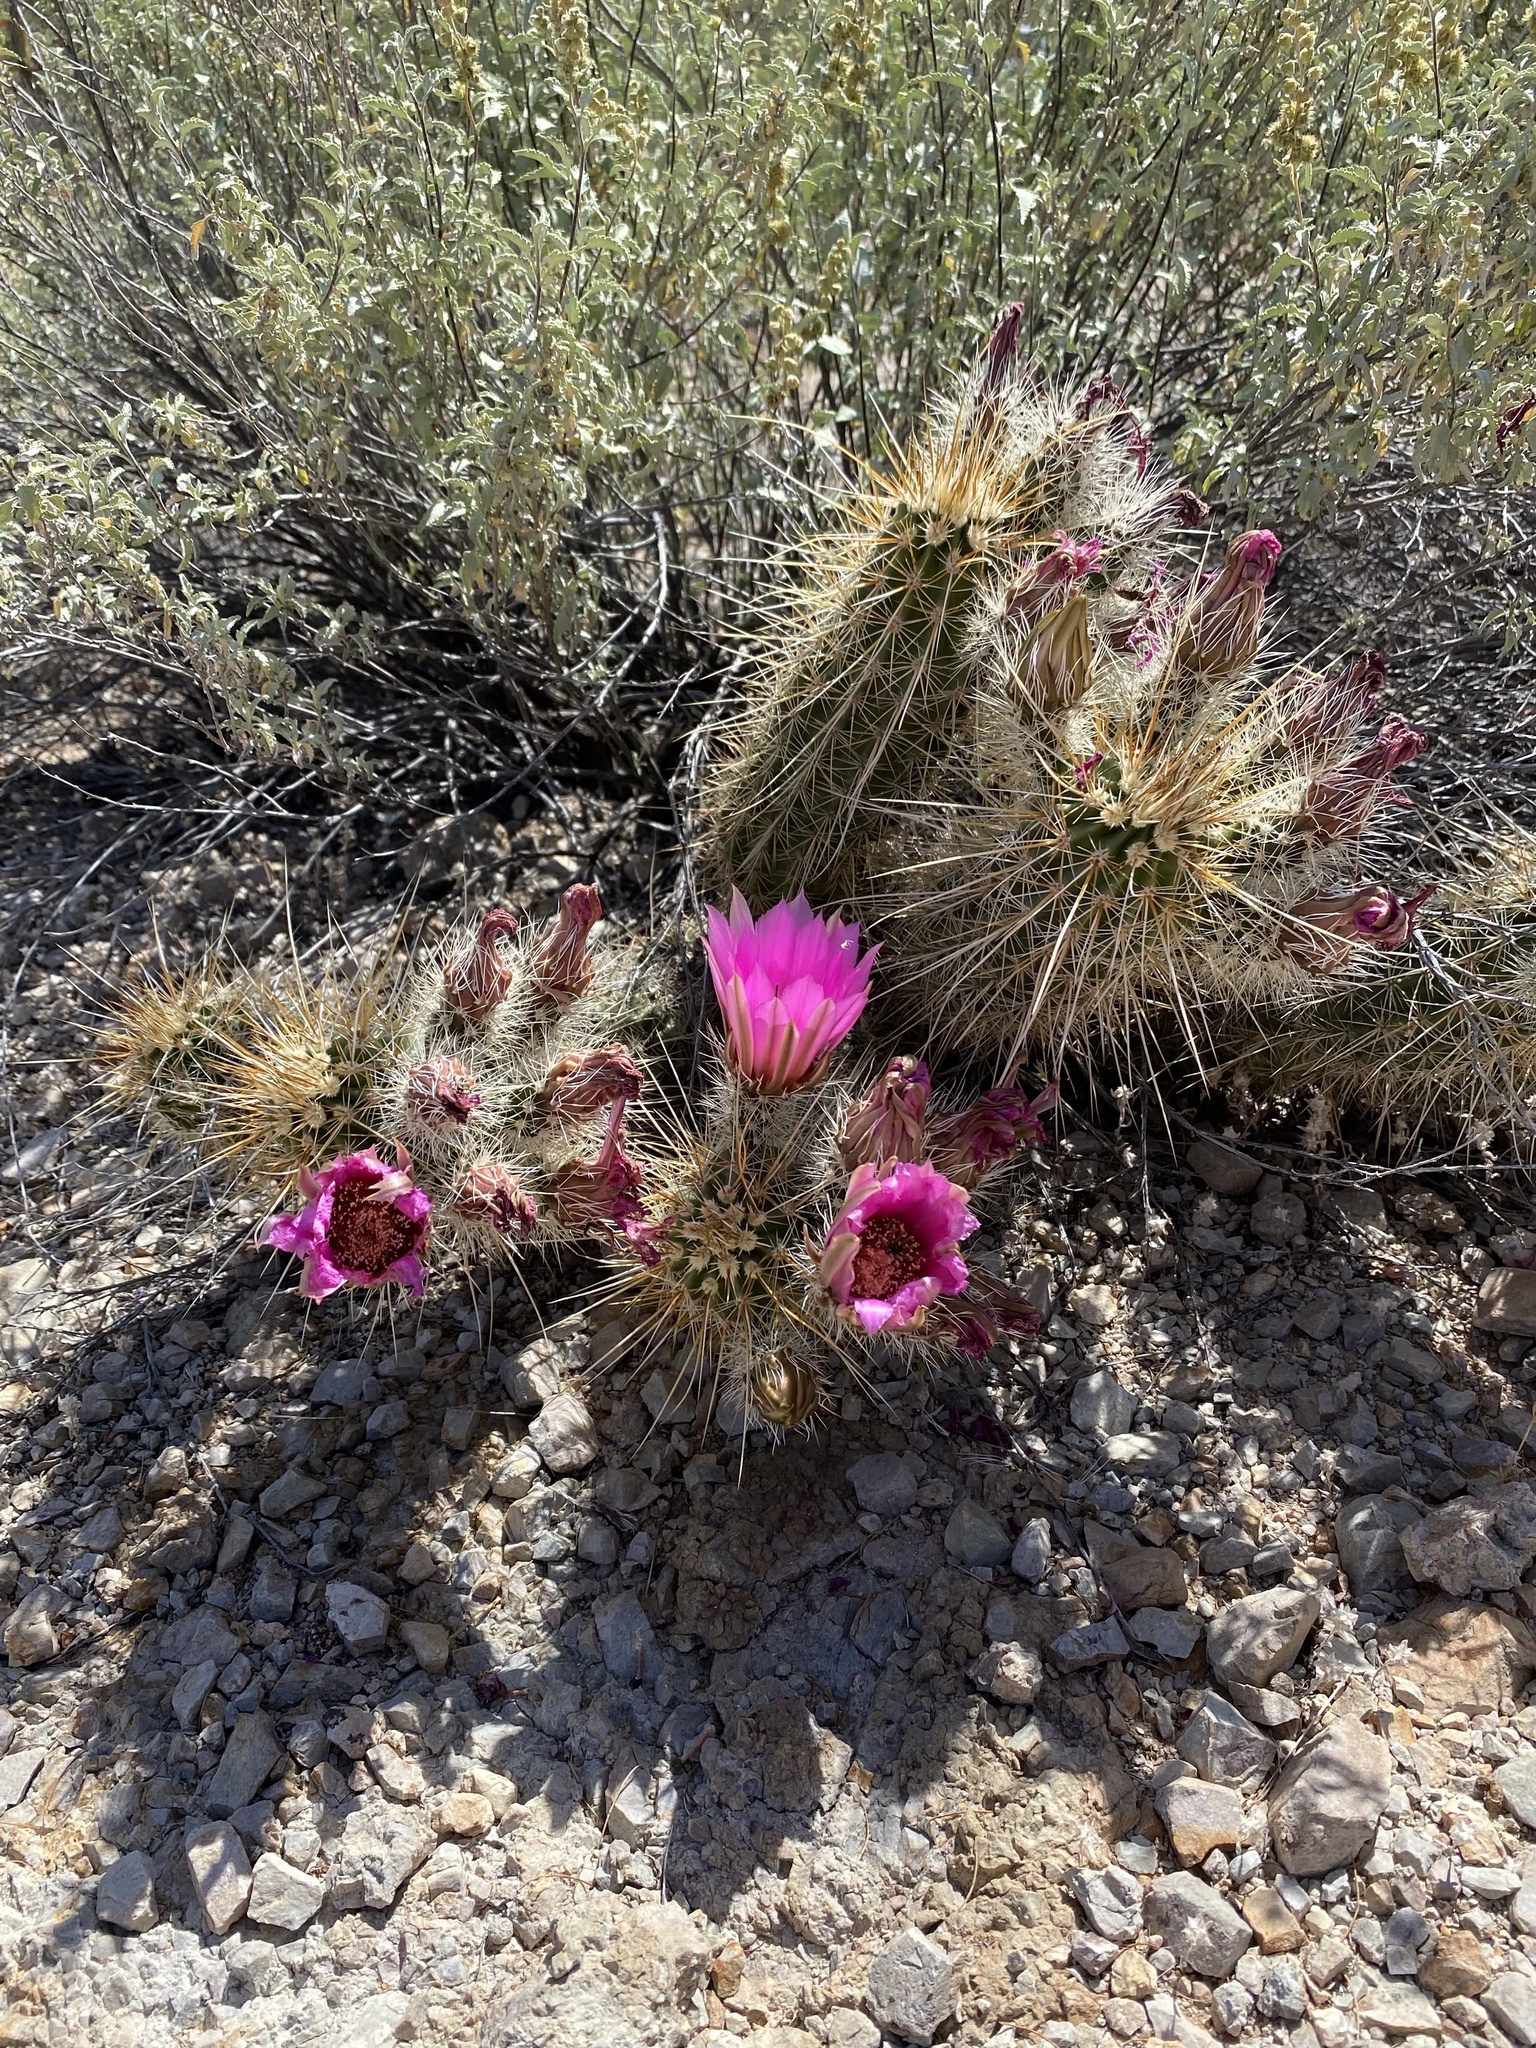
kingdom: Plantae
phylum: Tracheophyta
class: Magnoliopsida
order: Caryophyllales
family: Cactaceae
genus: Echinocereus
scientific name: Echinocereus engelmannii
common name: Engelmann's hedgehog cactus
